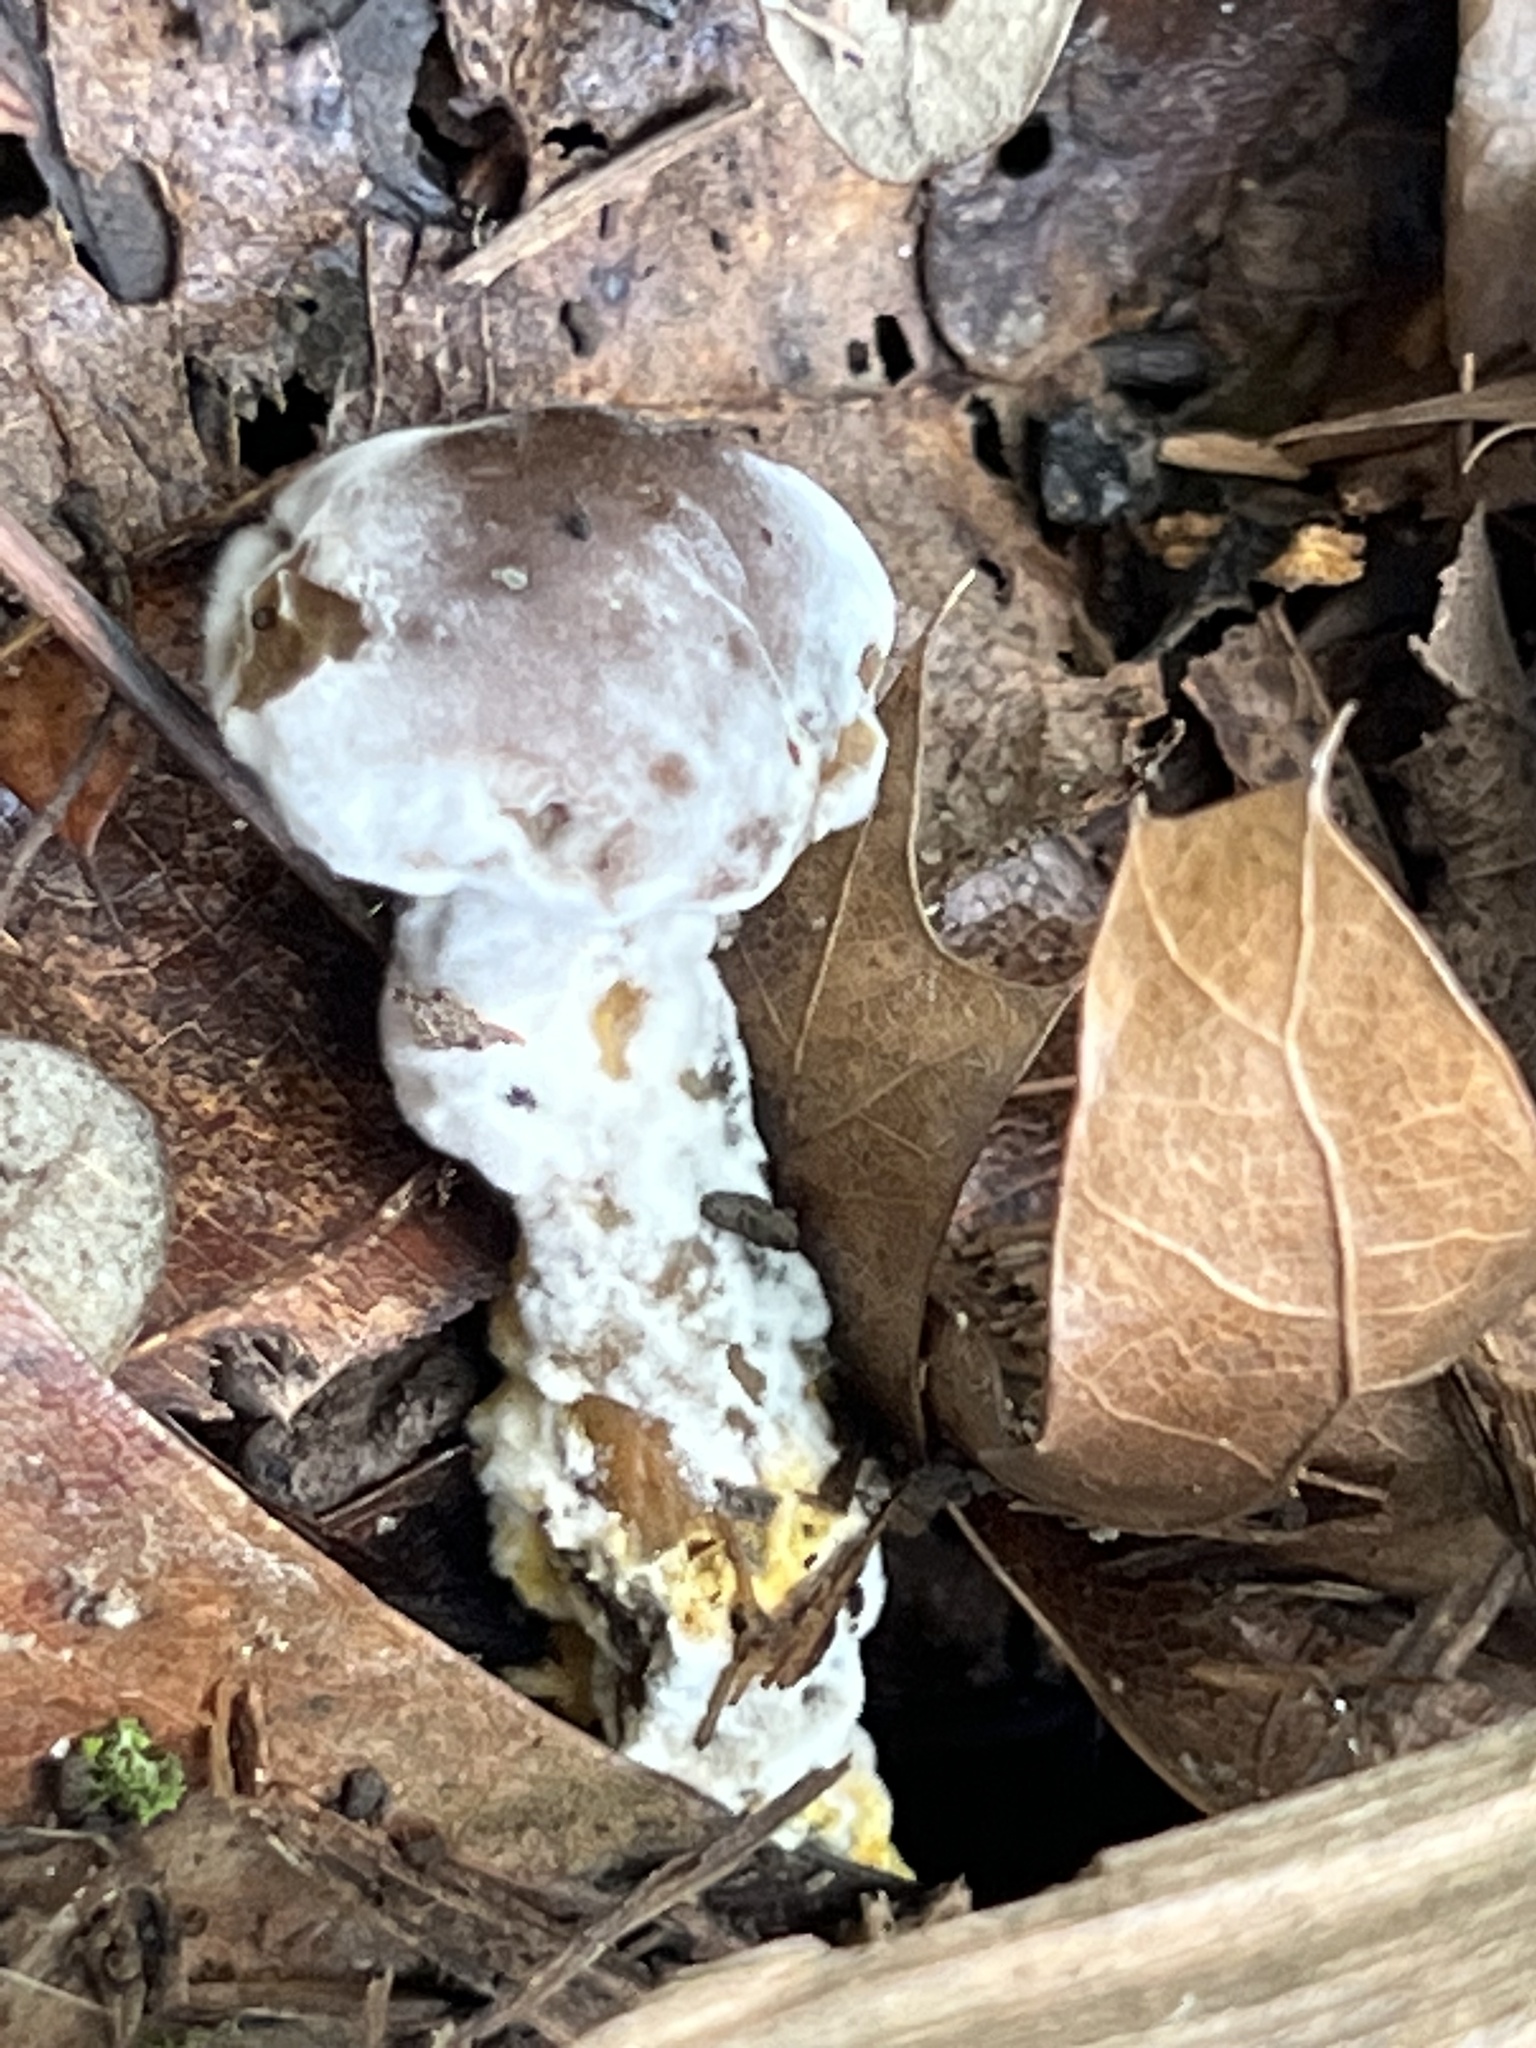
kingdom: Fungi
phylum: Ascomycota
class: Sordariomycetes
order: Hypocreales
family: Hypocreaceae
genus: Hypomyces
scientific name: Hypomyces chrysospermus
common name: Bolete mould
